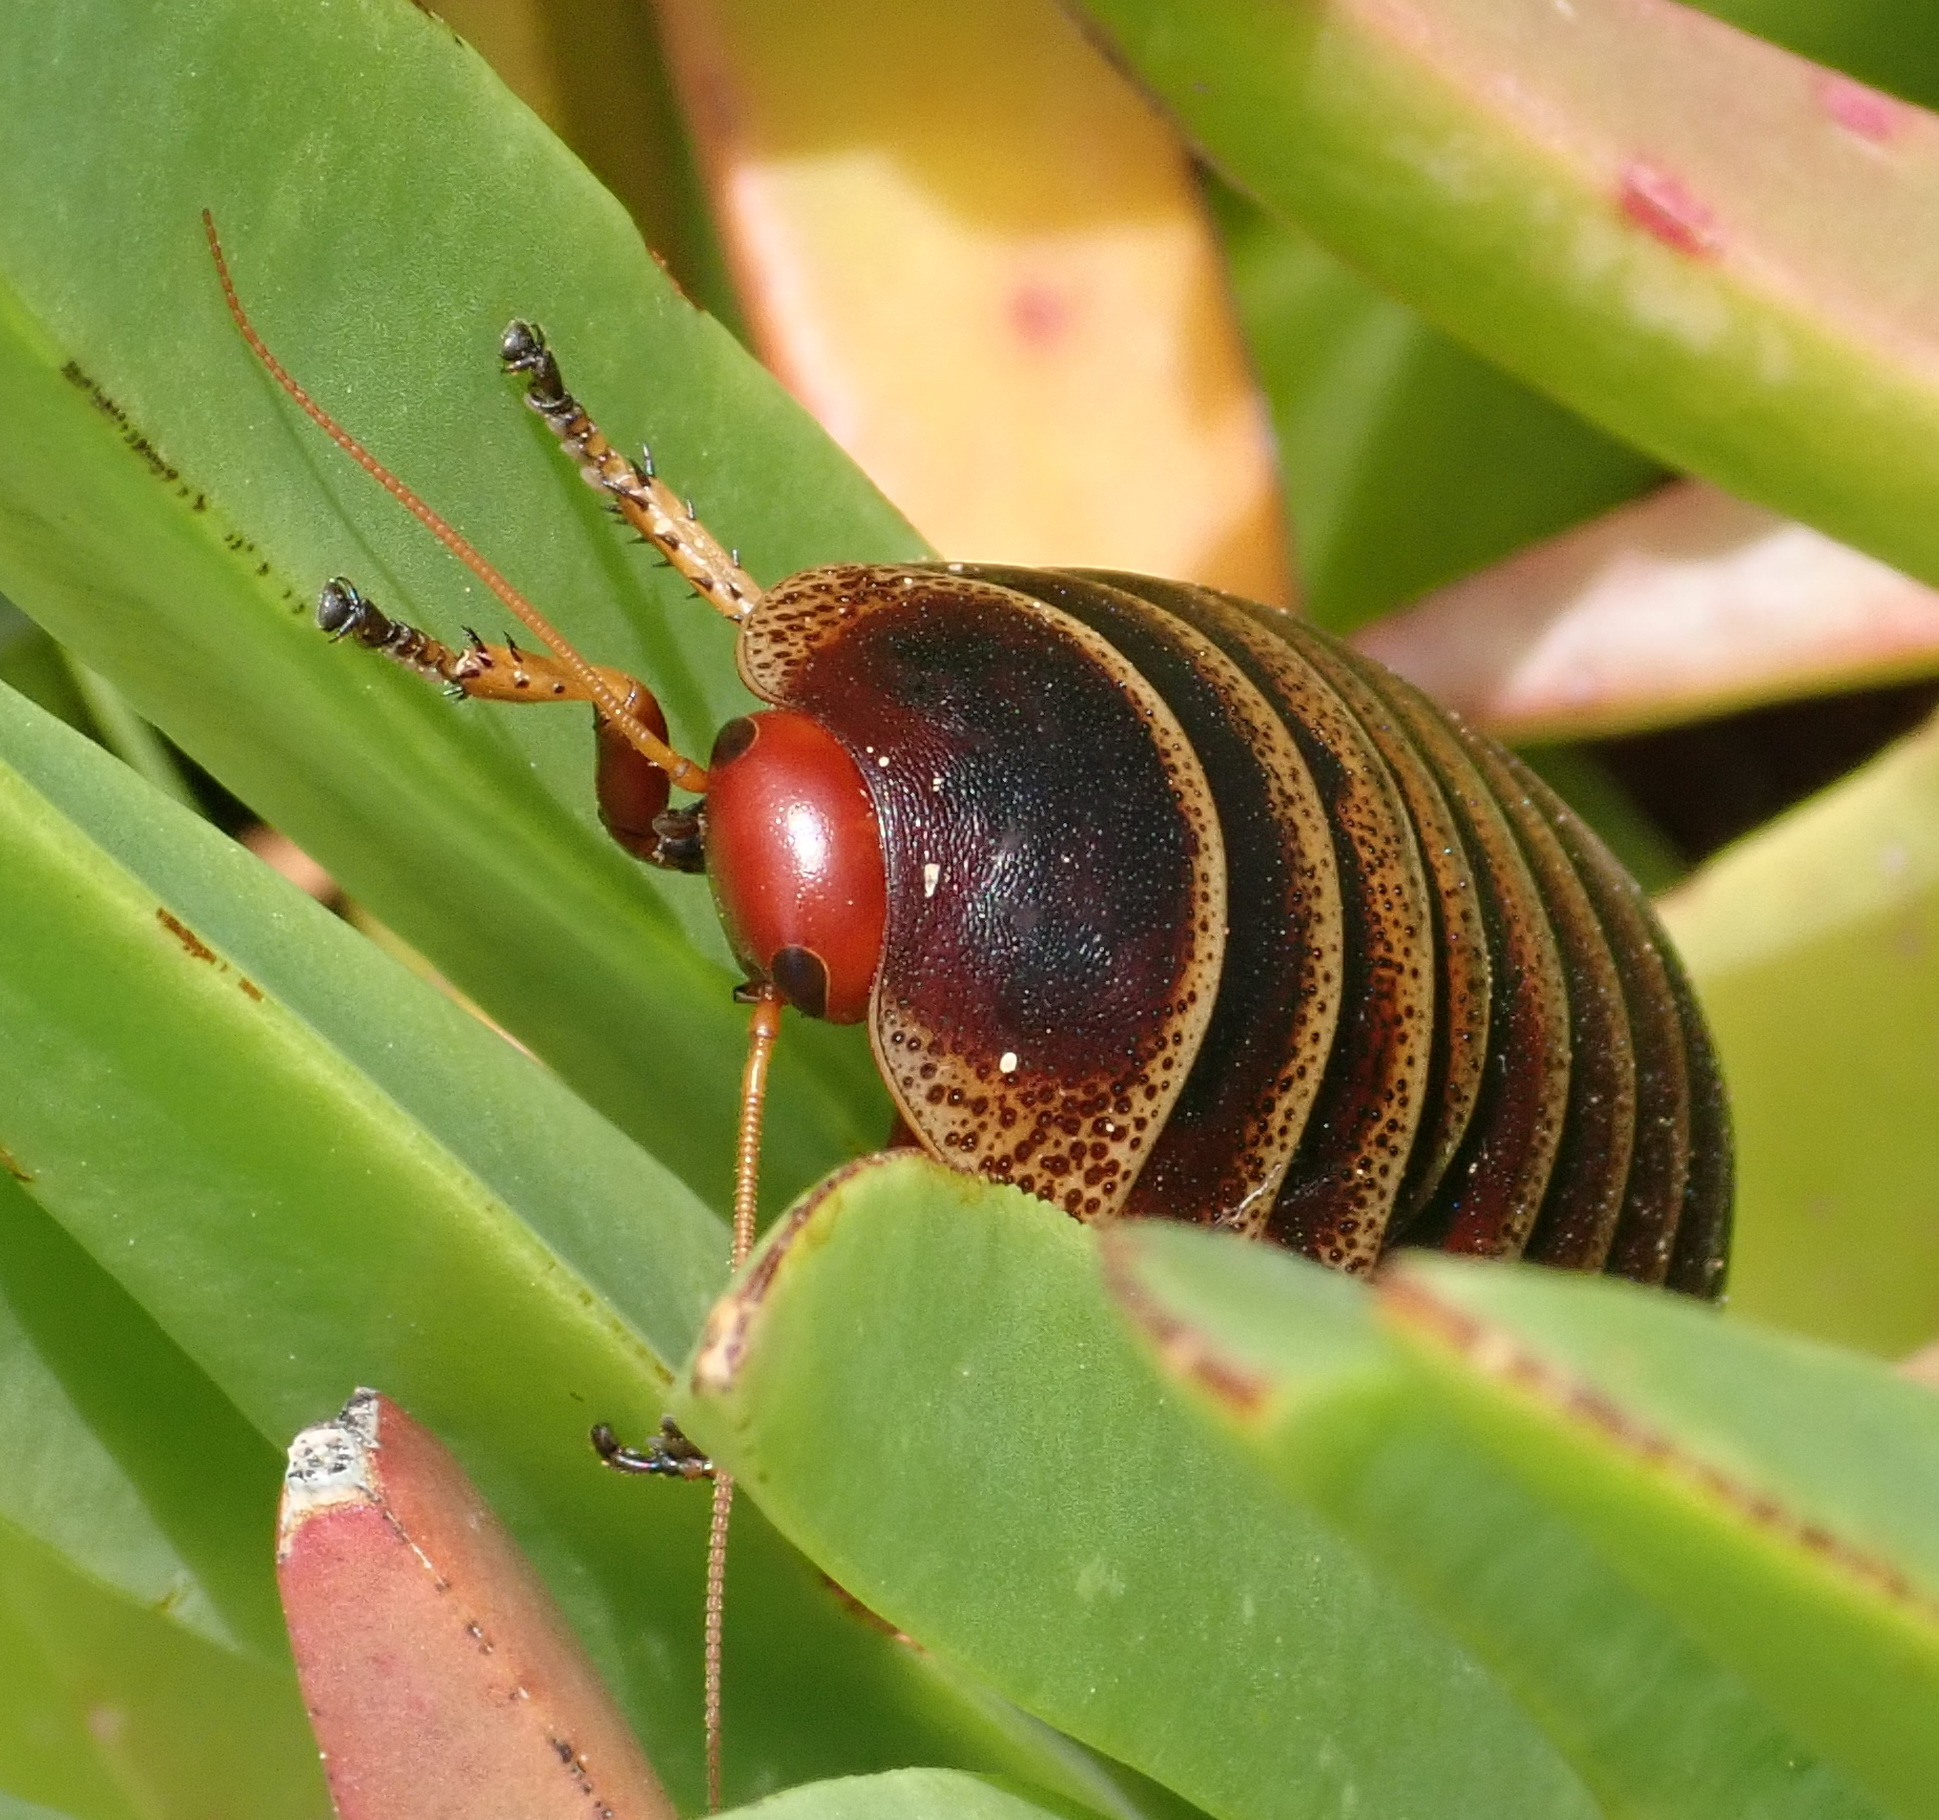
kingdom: Animalia
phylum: Arthropoda
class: Insecta
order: Blattodea
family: Blaberidae
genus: Aptera
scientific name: Aptera fusca
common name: Cape mountain cockroach
